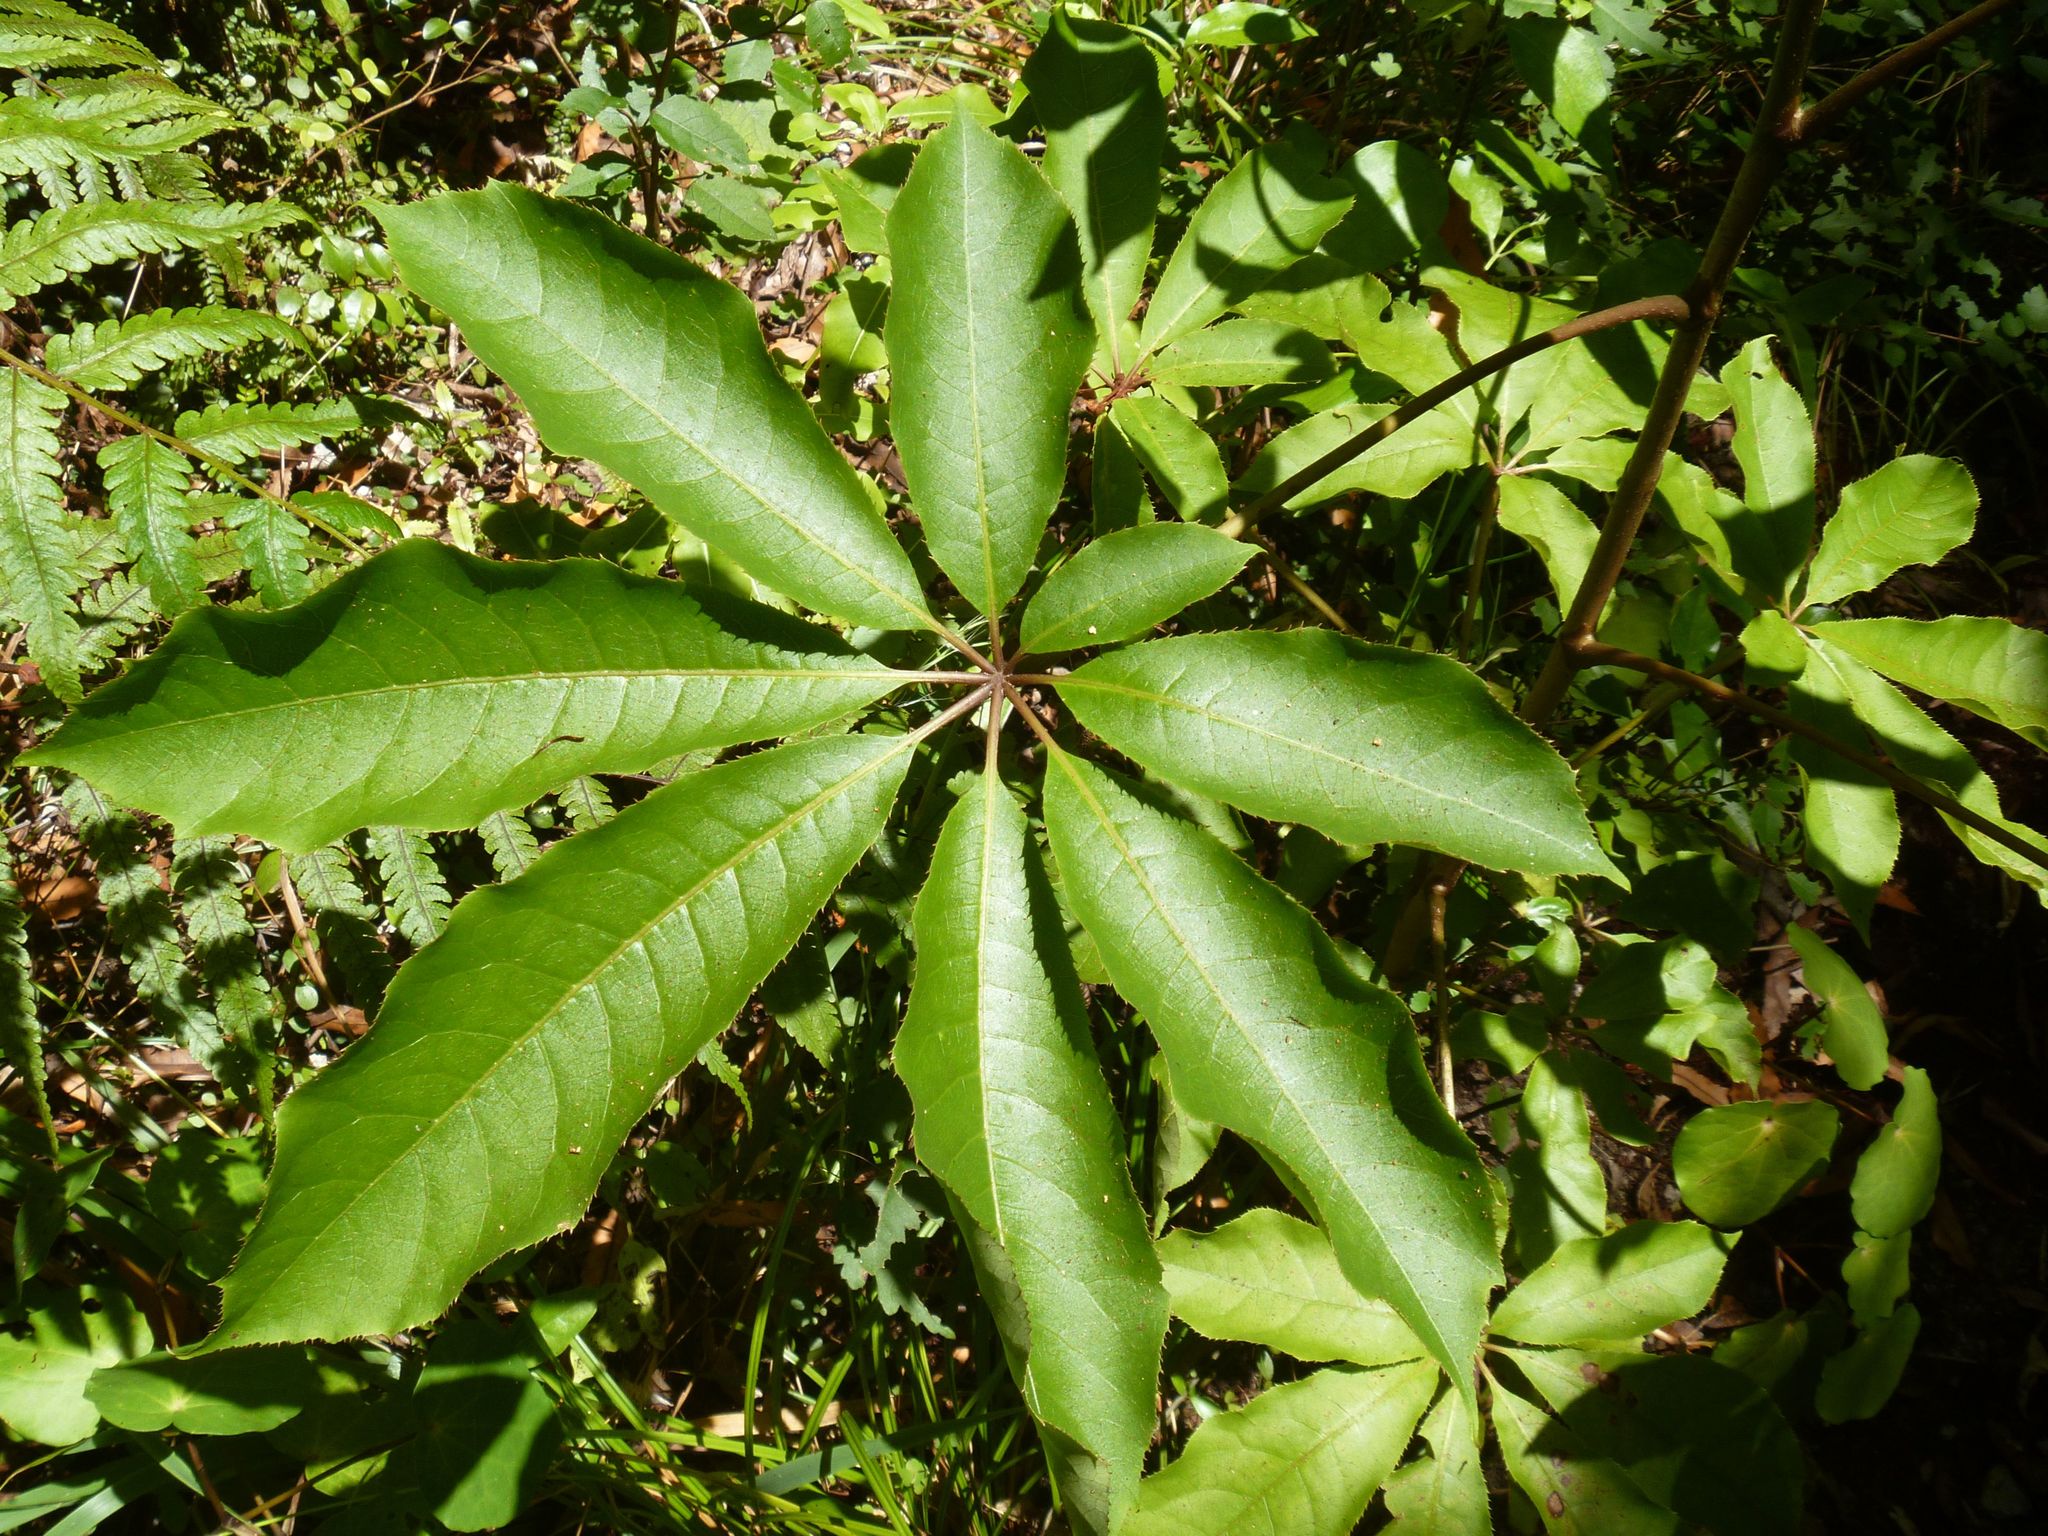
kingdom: Plantae
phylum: Tracheophyta
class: Magnoliopsida
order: Apiales
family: Araliaceae
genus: Schefflera
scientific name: Schefflera digitata
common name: Pate
